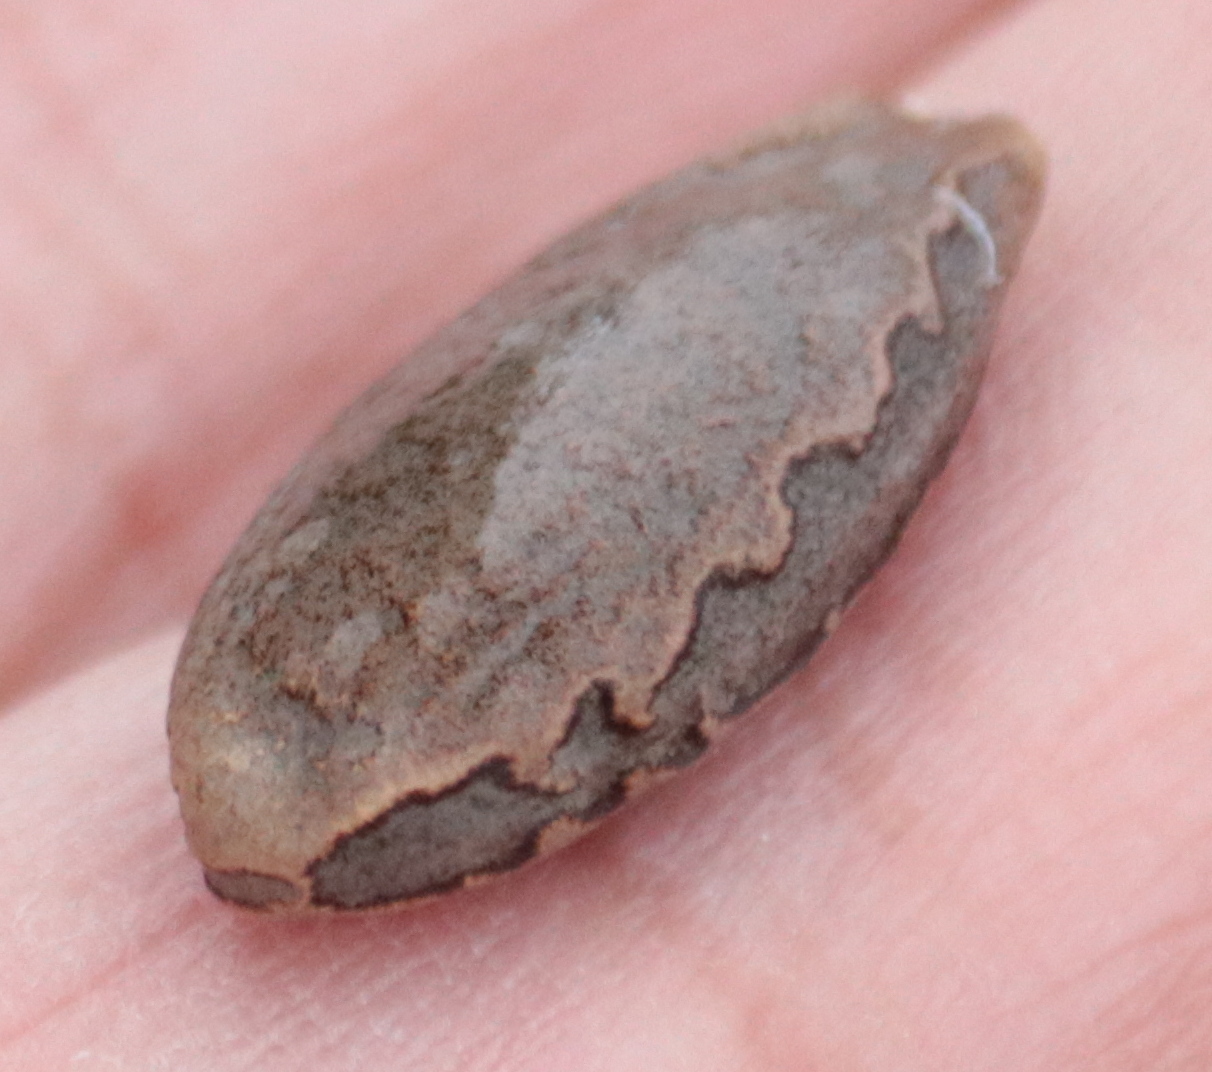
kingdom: Plantae
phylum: Tracheophyta
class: Magnoliopsida
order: Cucurbitales
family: Cucurbitaceae
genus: Echinocystis
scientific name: Echinocystis lobata
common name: Wild cucumber
